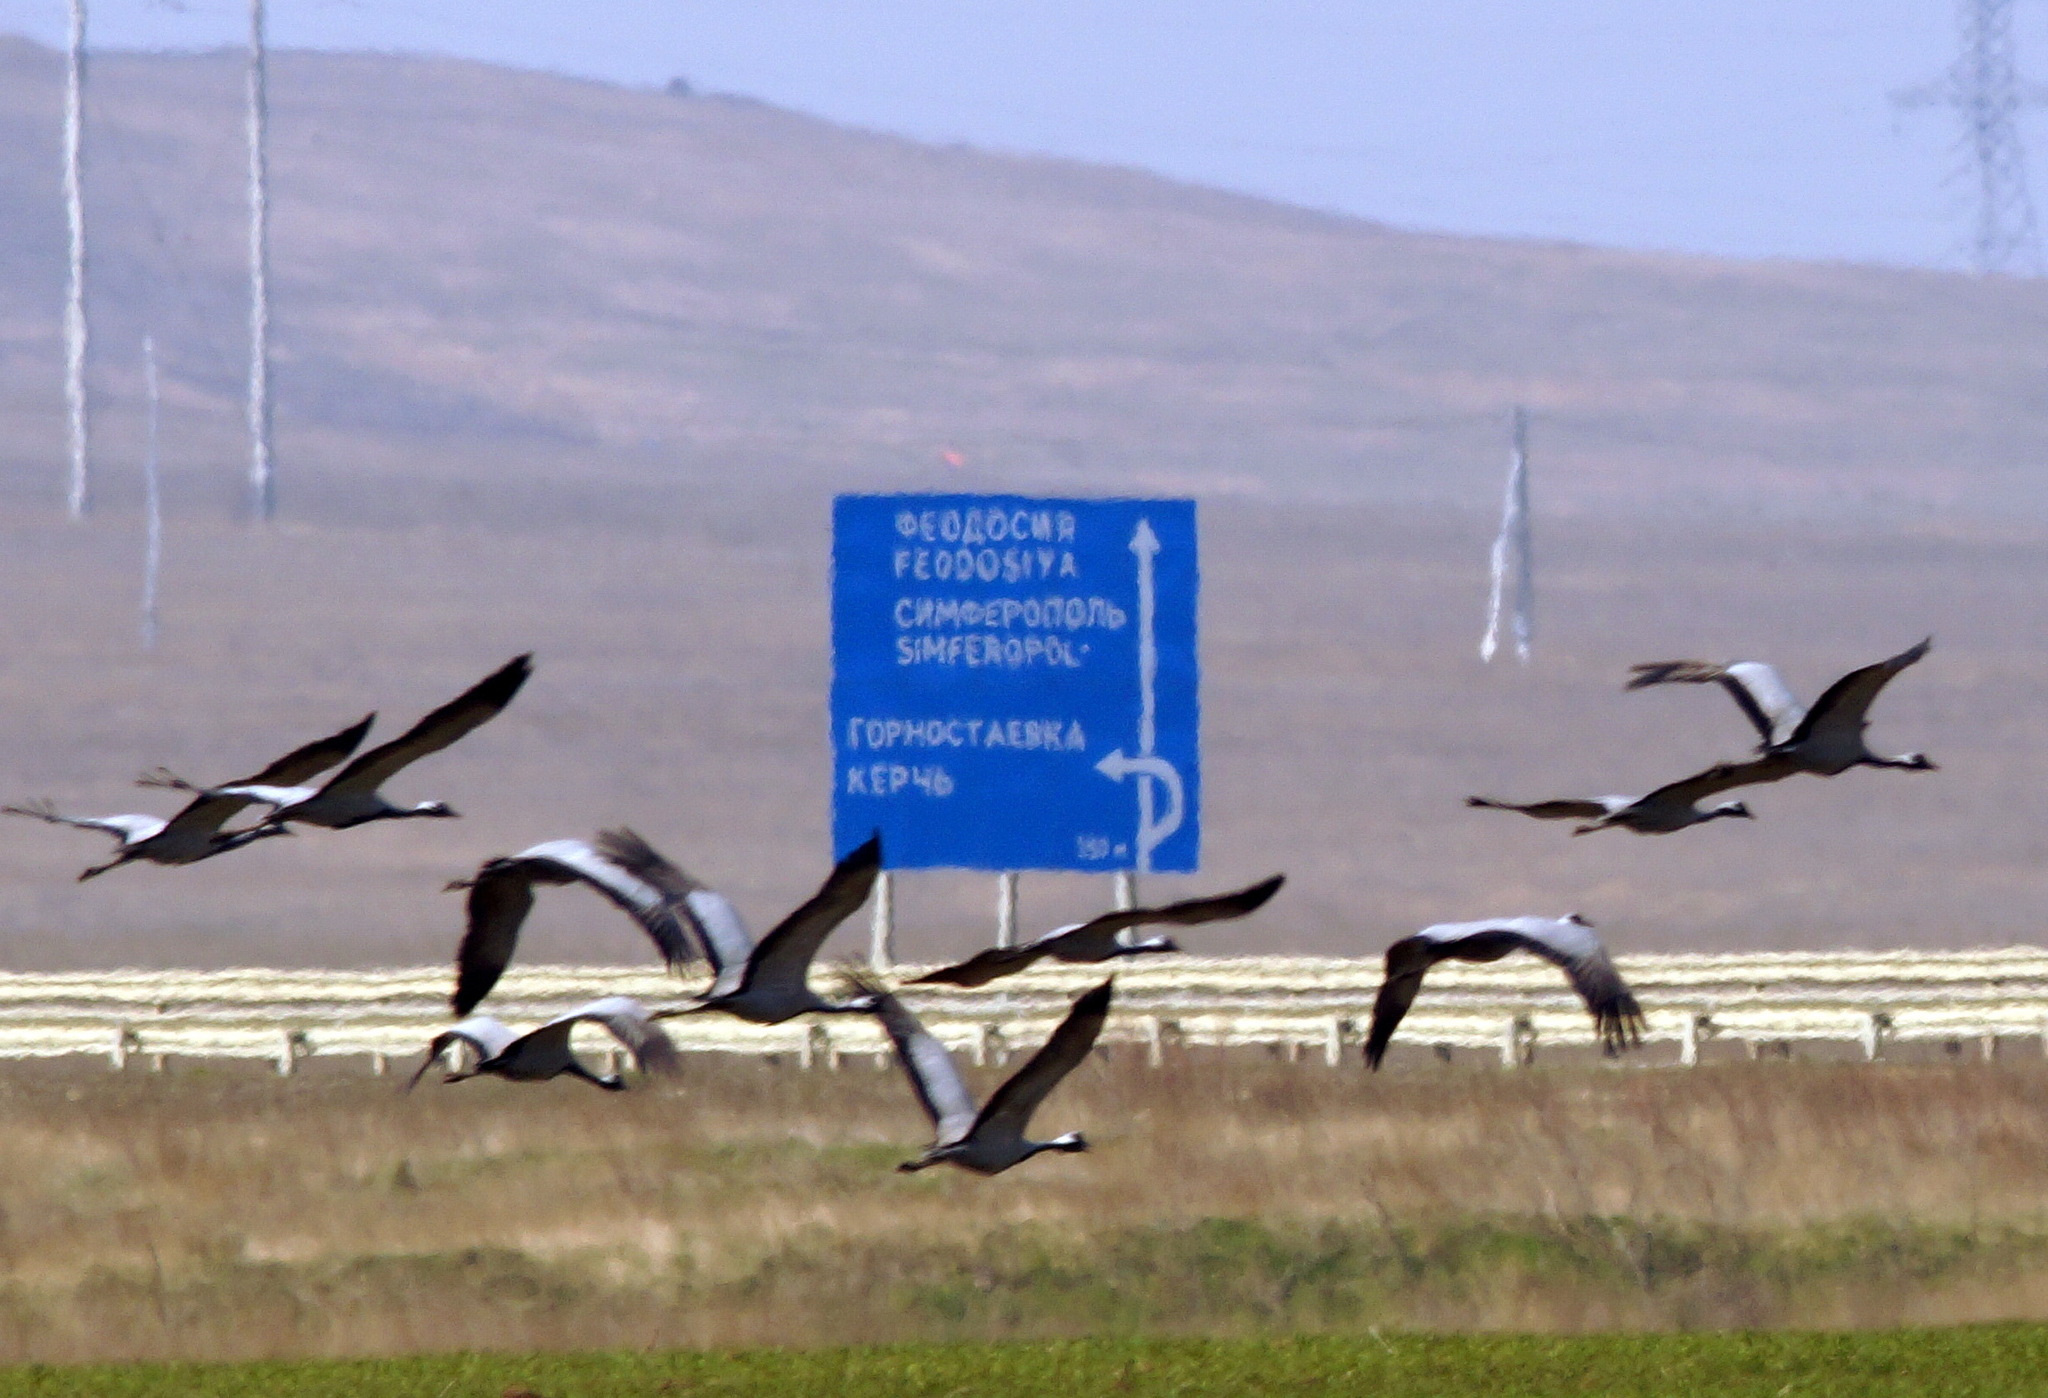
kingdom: Animalia
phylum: Chordata
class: Aves
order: Gruiformes
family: Gruidae
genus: Anthropoides
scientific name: Anthropoides virgo
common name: Demoiselle crane
